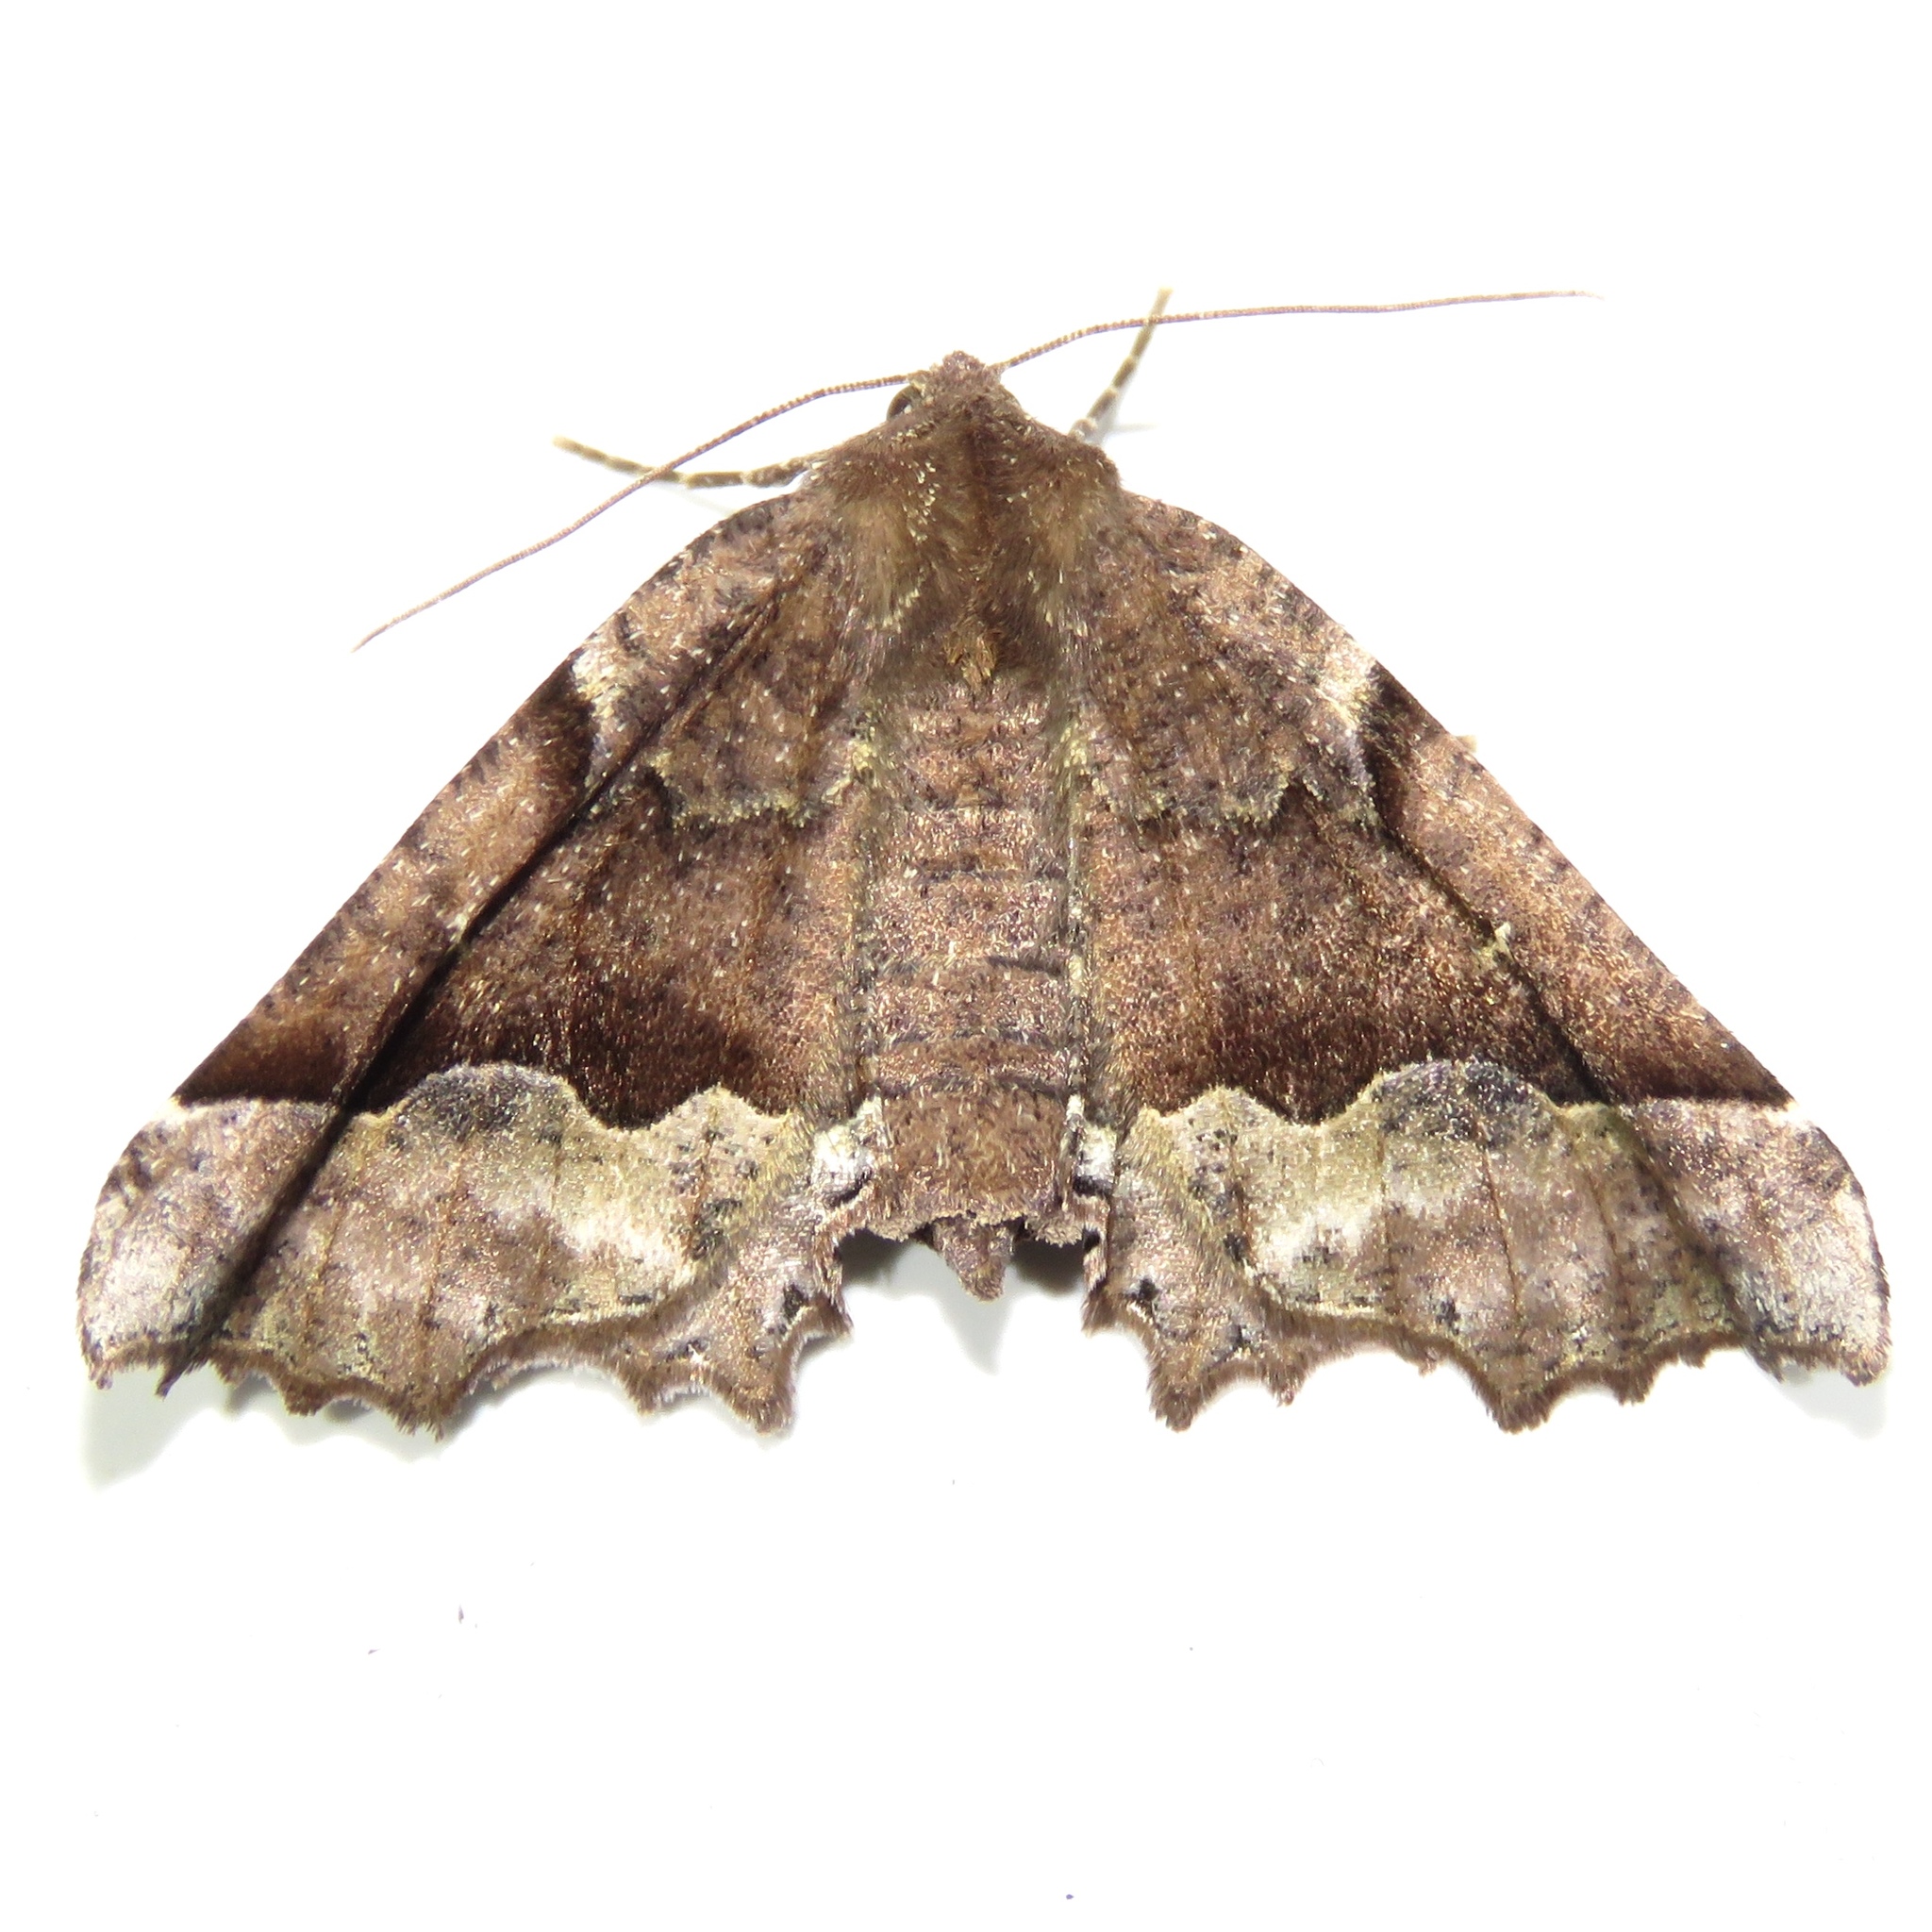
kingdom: Animalia
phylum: Arthropoda
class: Insecta
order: Lepidoptera
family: Geometridae
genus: Pero
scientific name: Pero morrisonaria
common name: Morrison's pero
